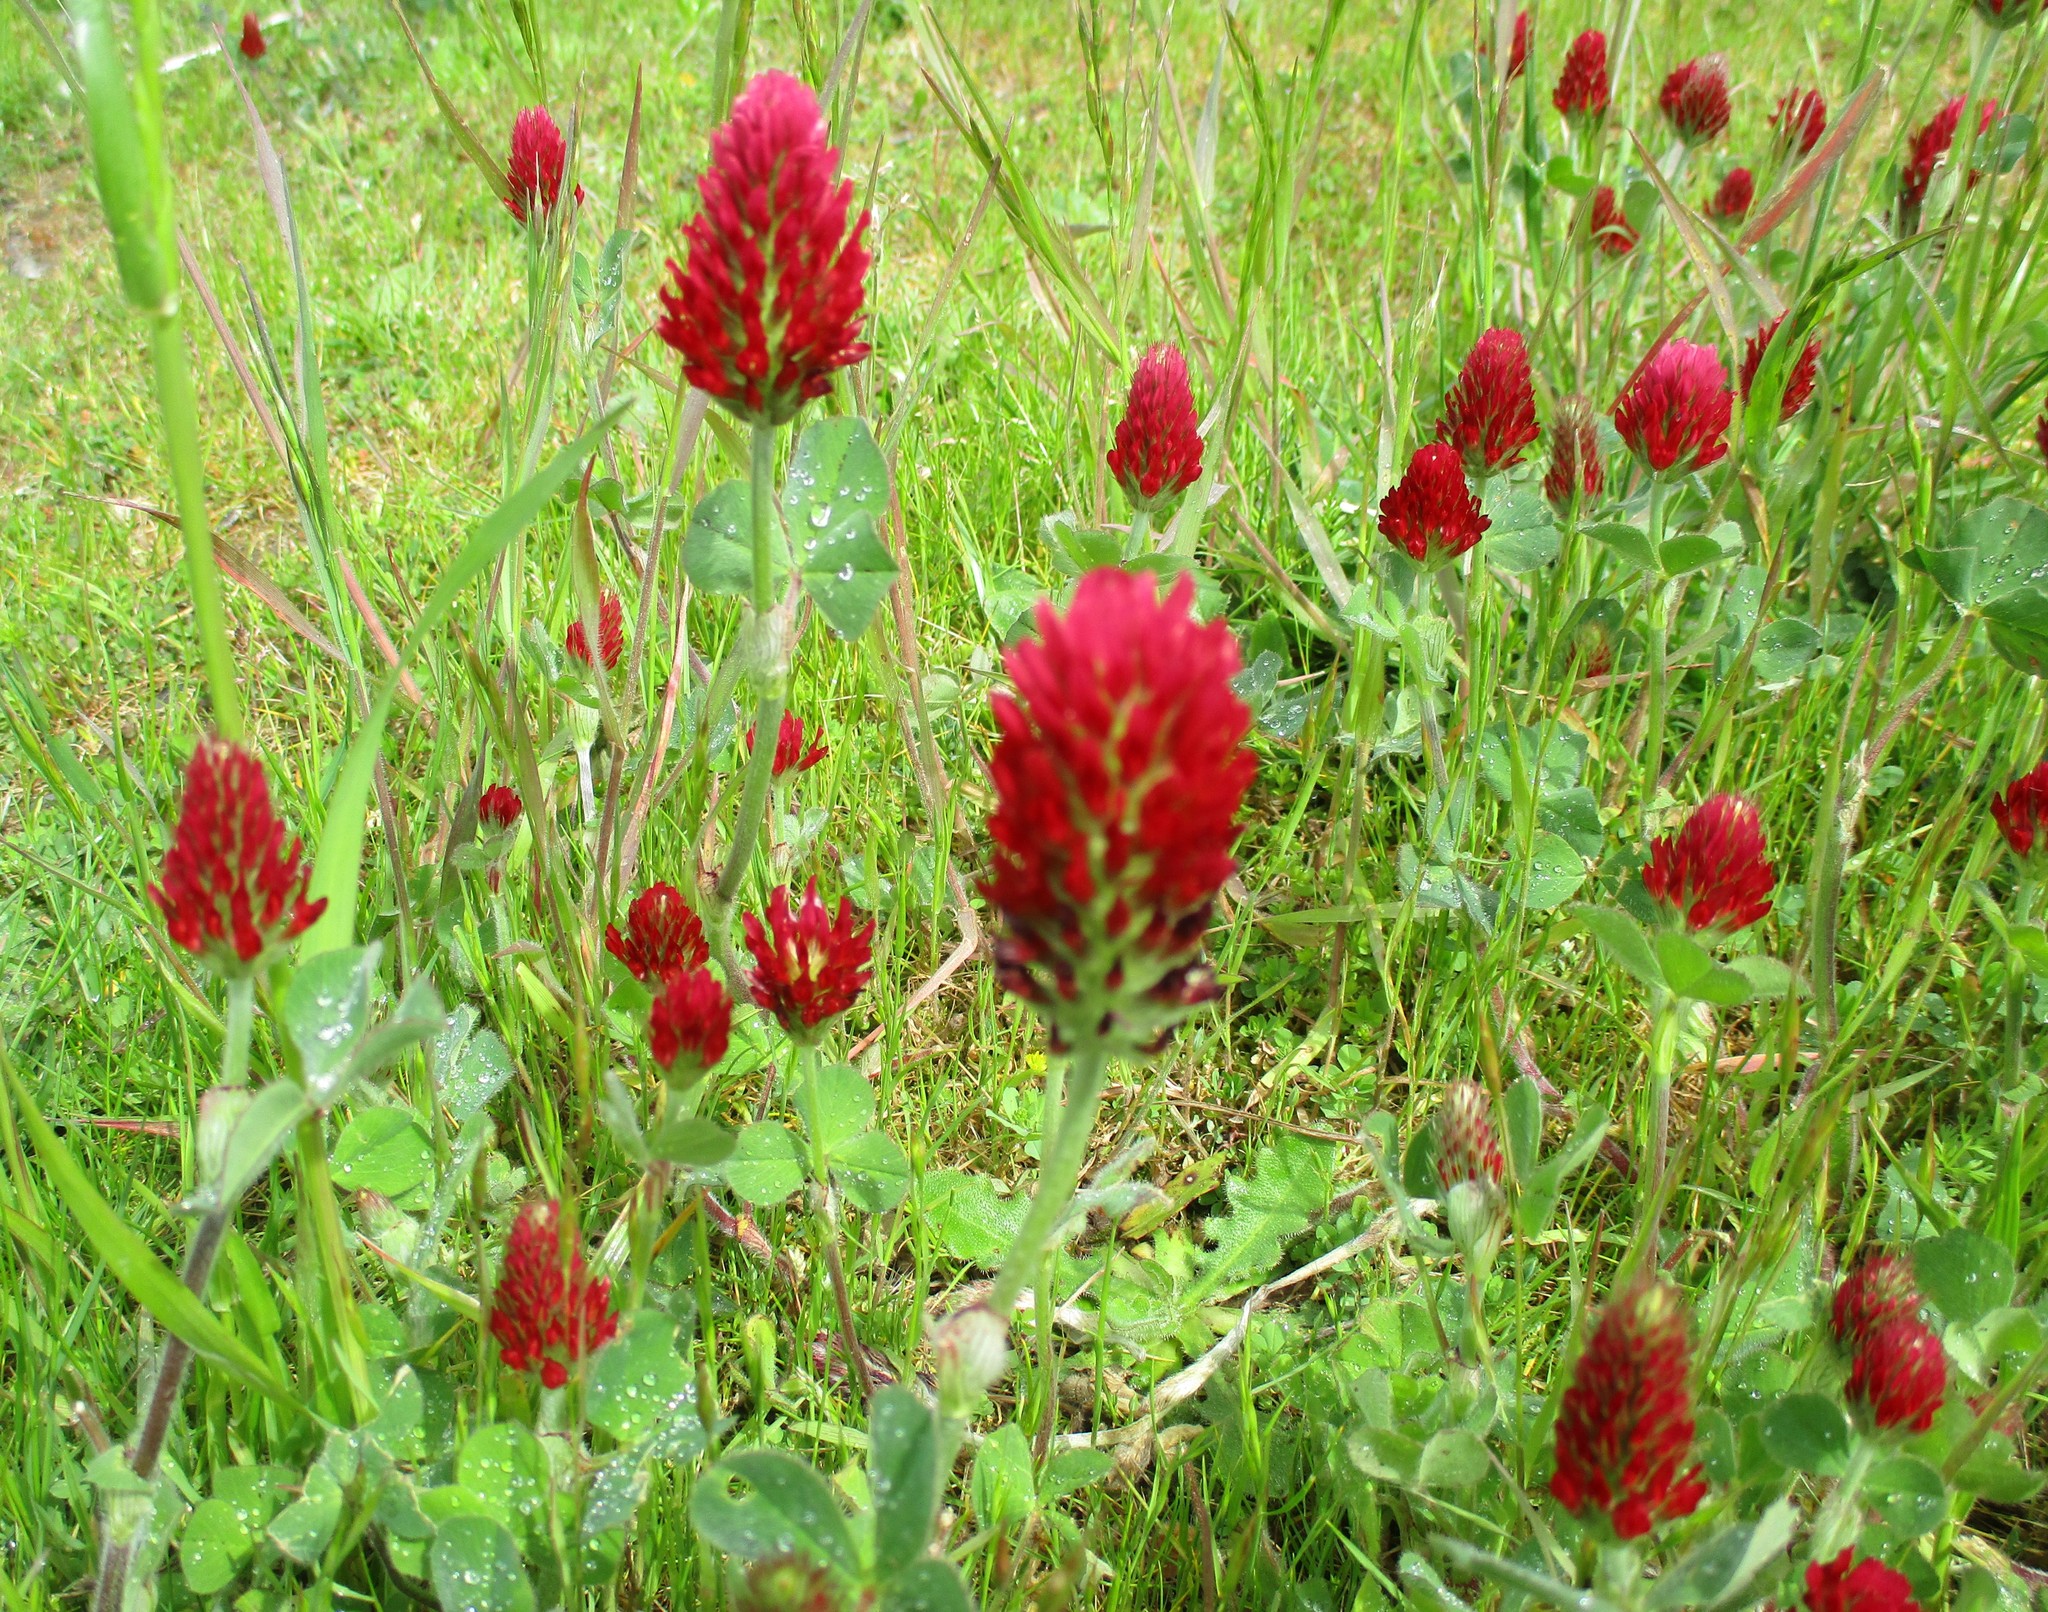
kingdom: Plantae
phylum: Tracheophyta
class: Magnoliopsida
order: Fabales
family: Fabaceae
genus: Trifolium
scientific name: Trifolium incarnatum
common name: Crimson clover
